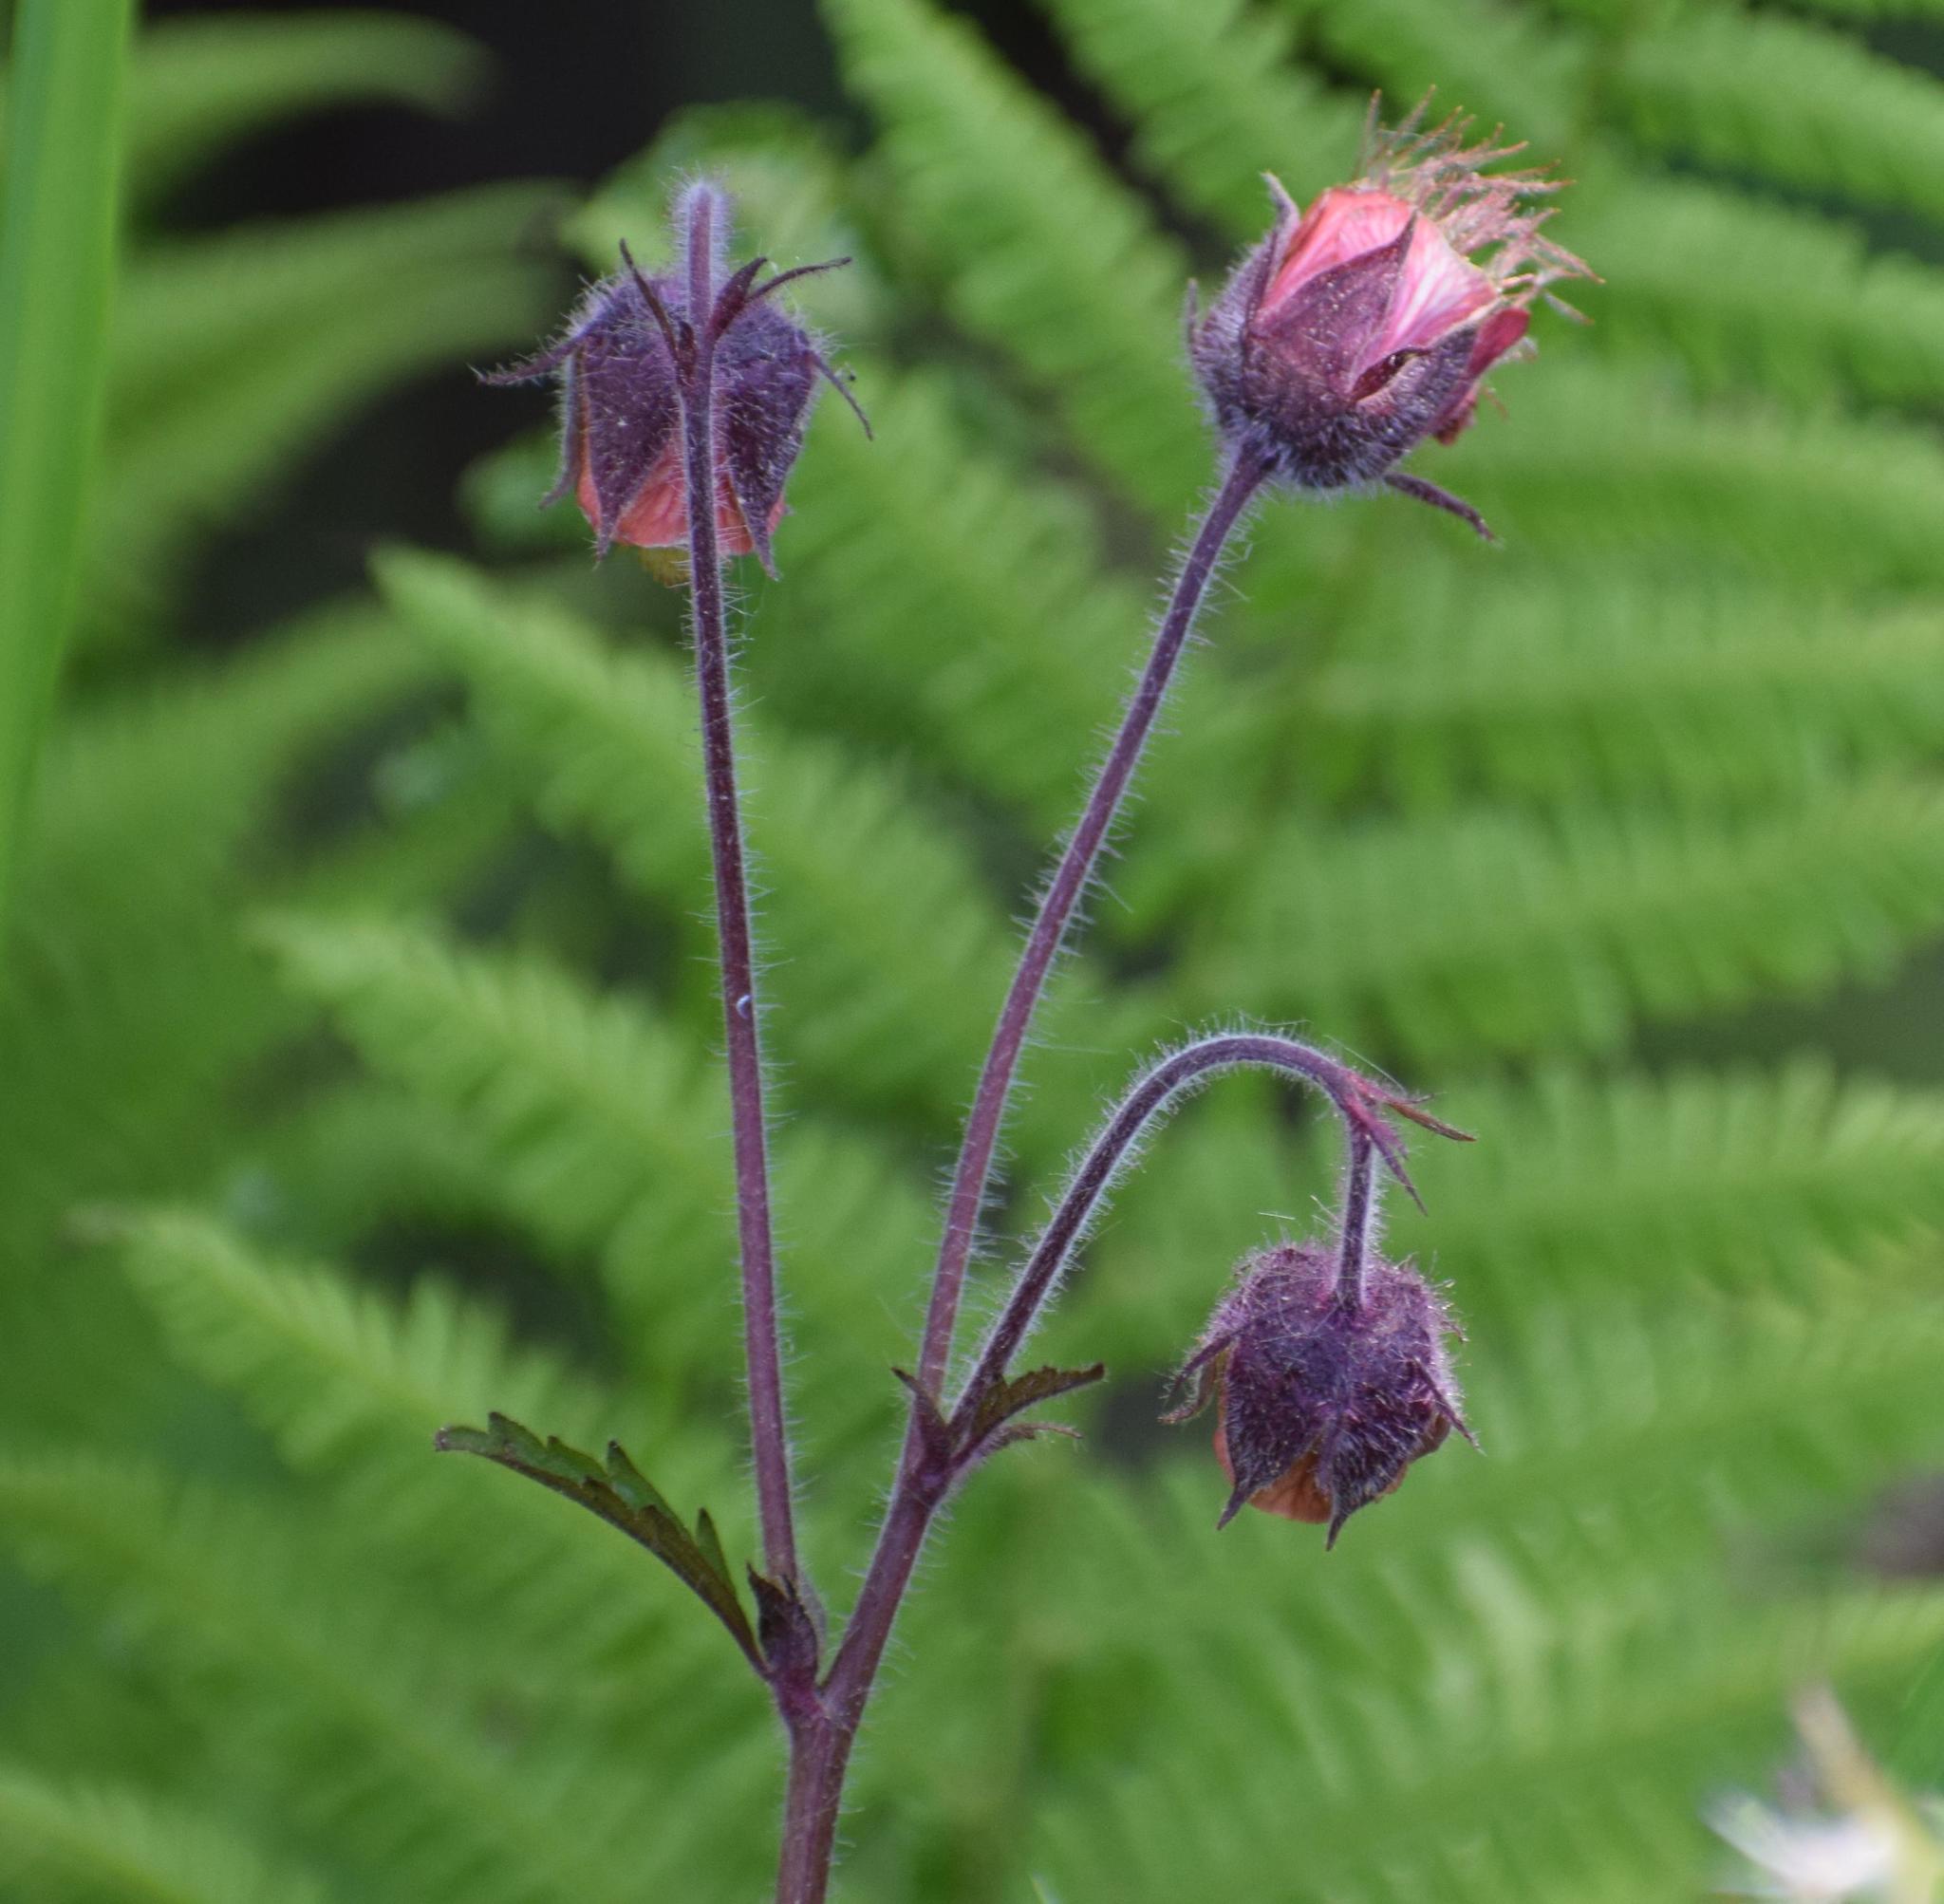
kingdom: Plantae
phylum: Tracheophyta
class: Magnoliopsida
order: Rosales
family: Rosaceae
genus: Geum
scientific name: Geum rivale
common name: Water avens
